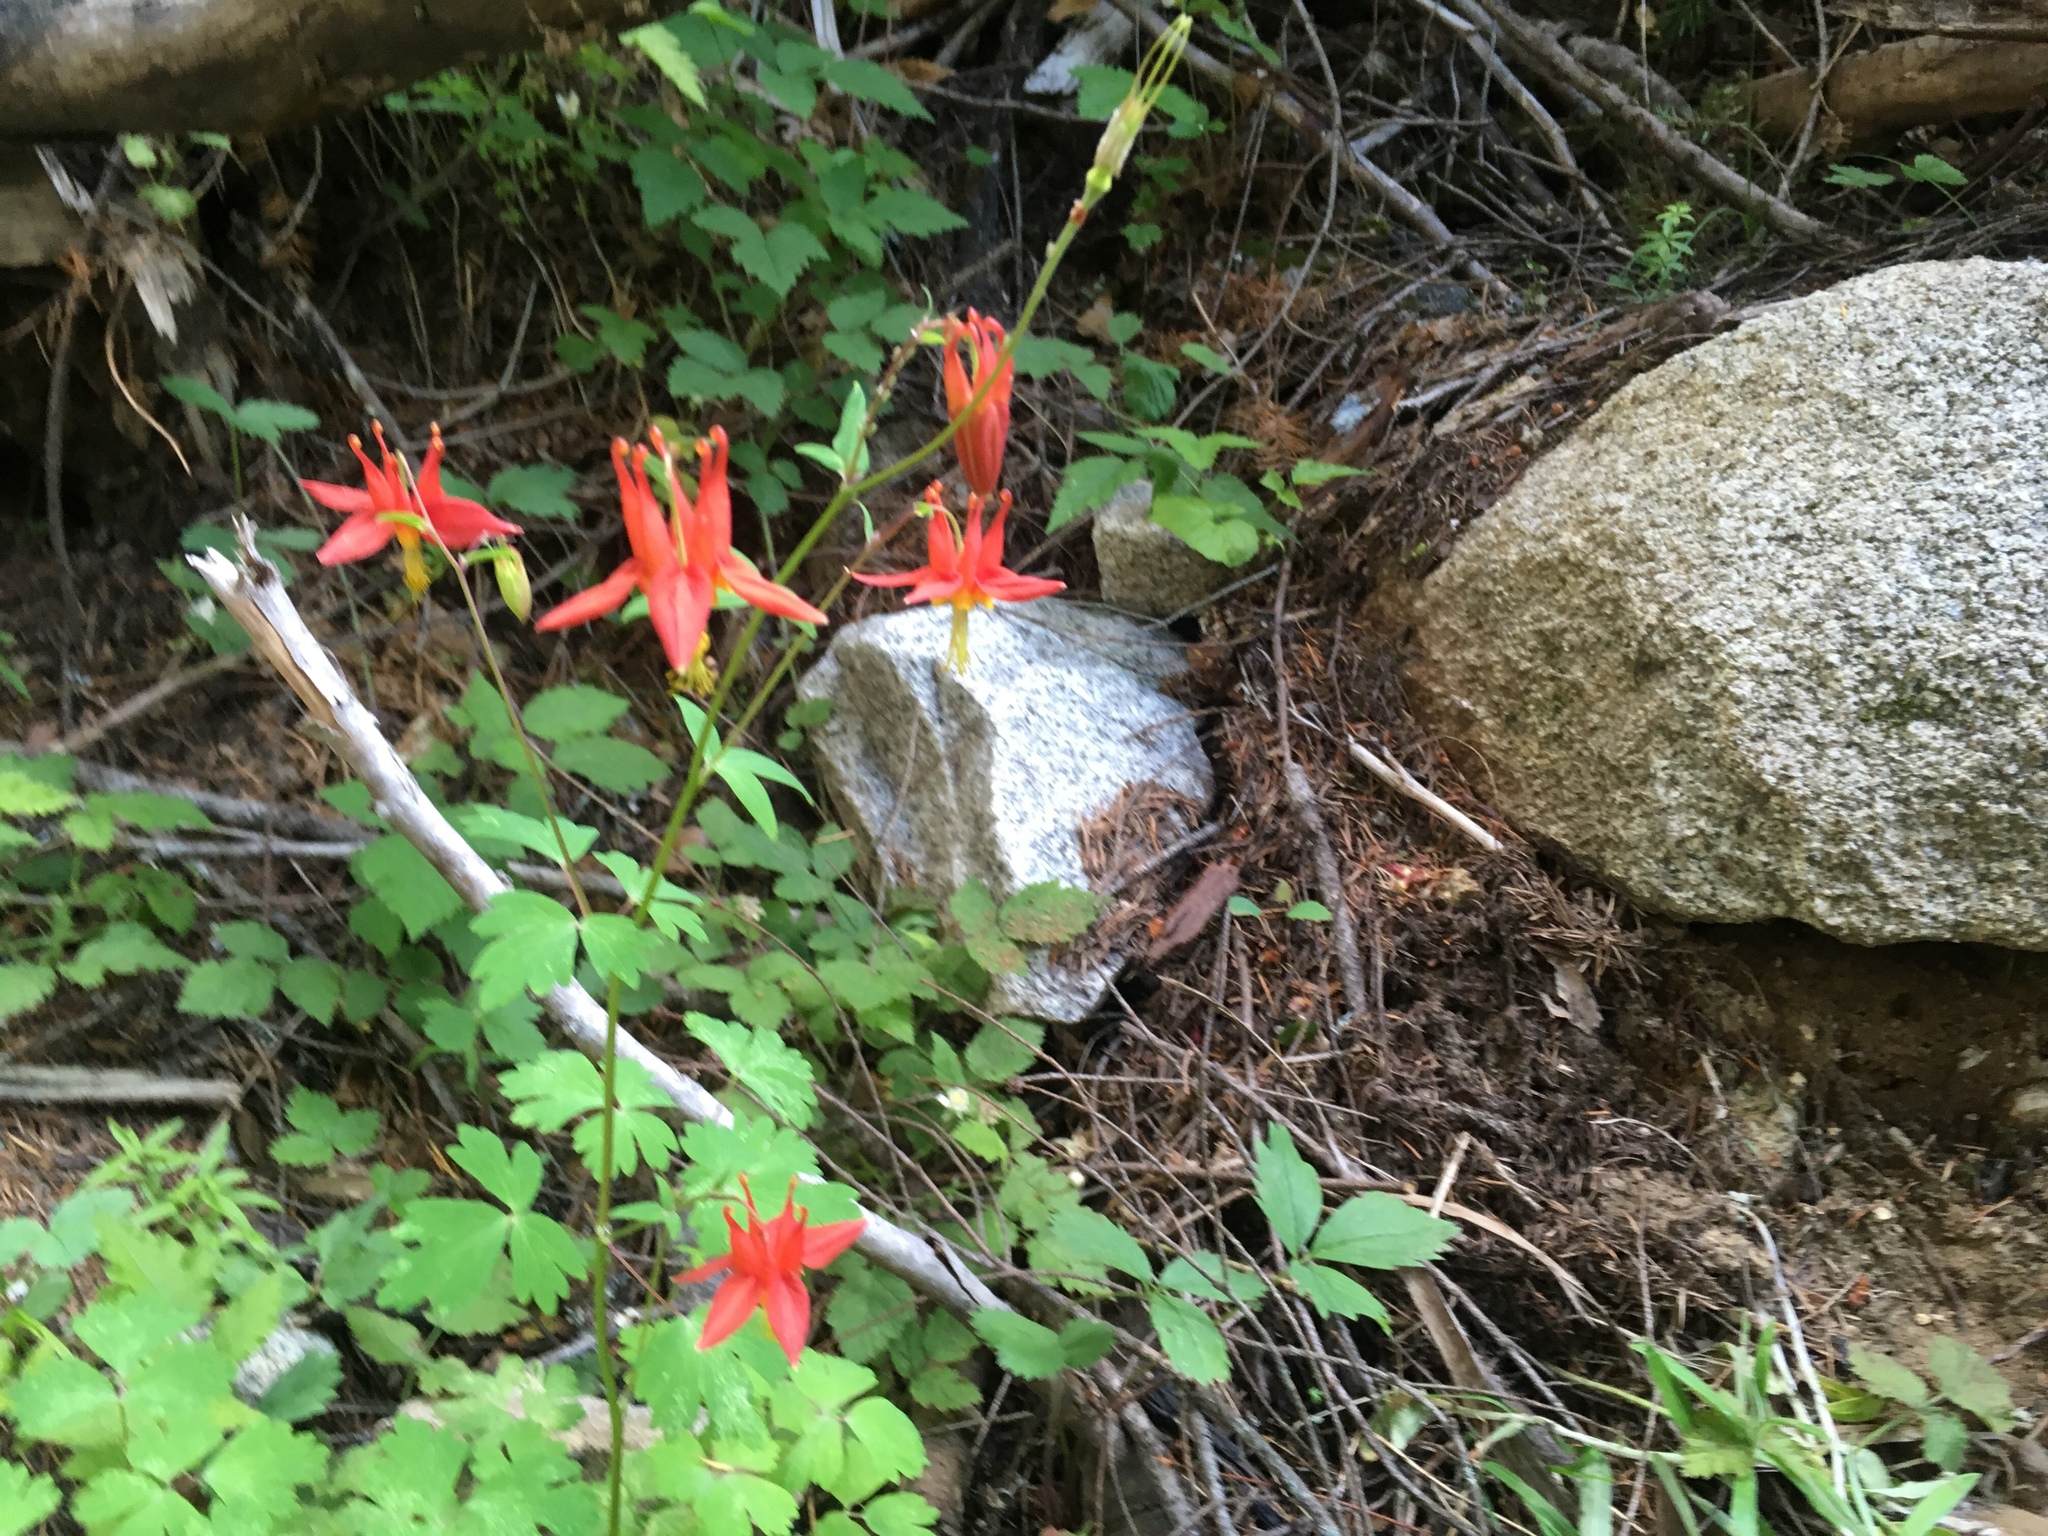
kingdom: Plantae
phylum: Tracheophyta
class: Magnoliopsida
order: Ranunculales
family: Ranunculaceae
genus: Aquilegia
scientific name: Aquilegia formosa
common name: Sitka columbine
